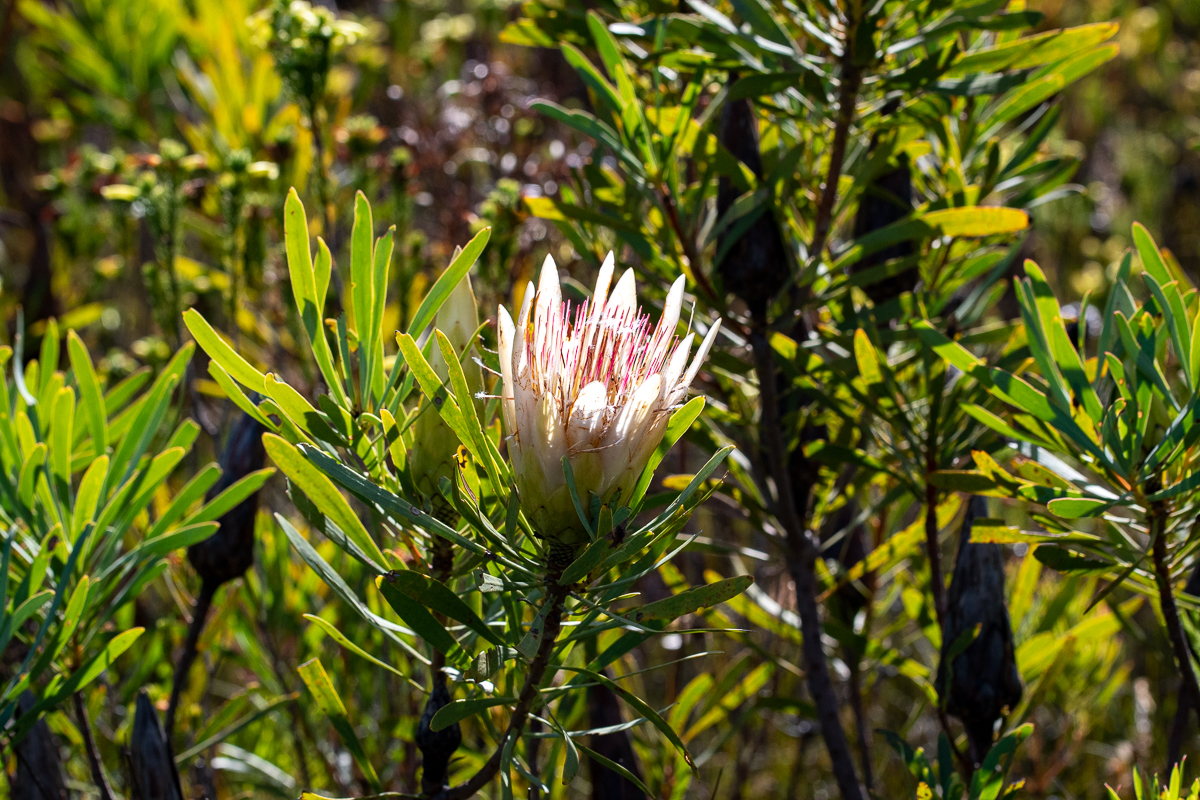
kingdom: Plantae
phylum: Tracheophyta
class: Magnoliopsida
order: Proteales
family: Proteaceae
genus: Protea
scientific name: Protea repens
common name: Sugarbush
